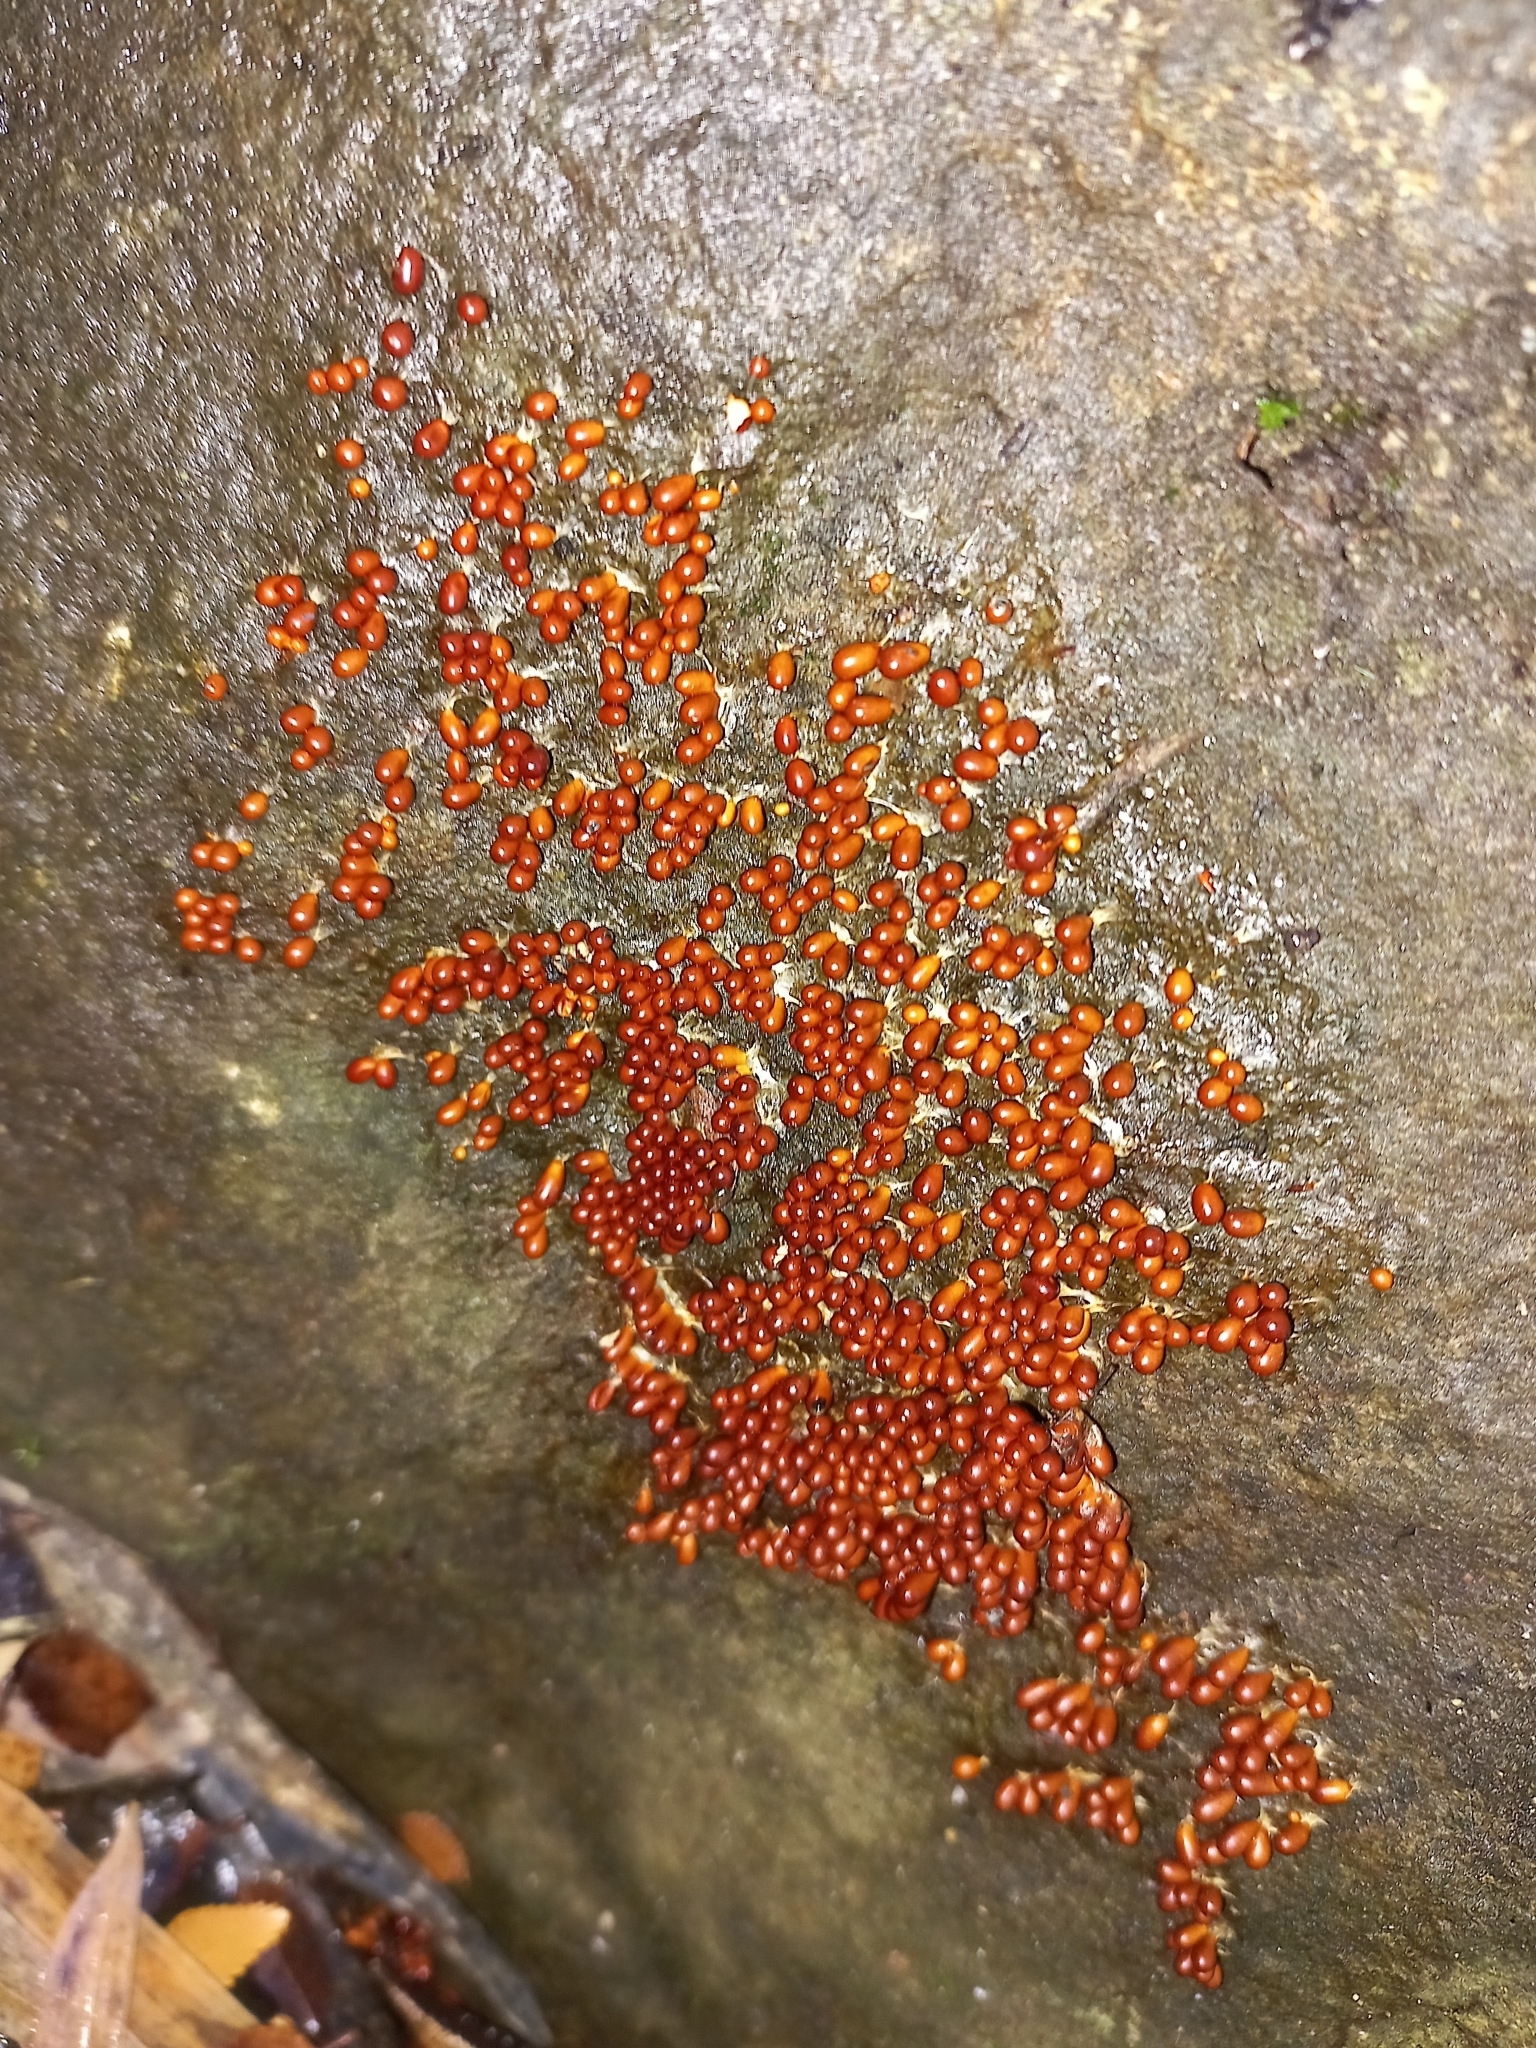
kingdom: Protozoa
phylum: Mycetozoa
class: Myxomycetes
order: Physarales
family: Physaraceae
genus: Leocarpus
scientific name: Leocarpus fragilis
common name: Insect-egg slime
